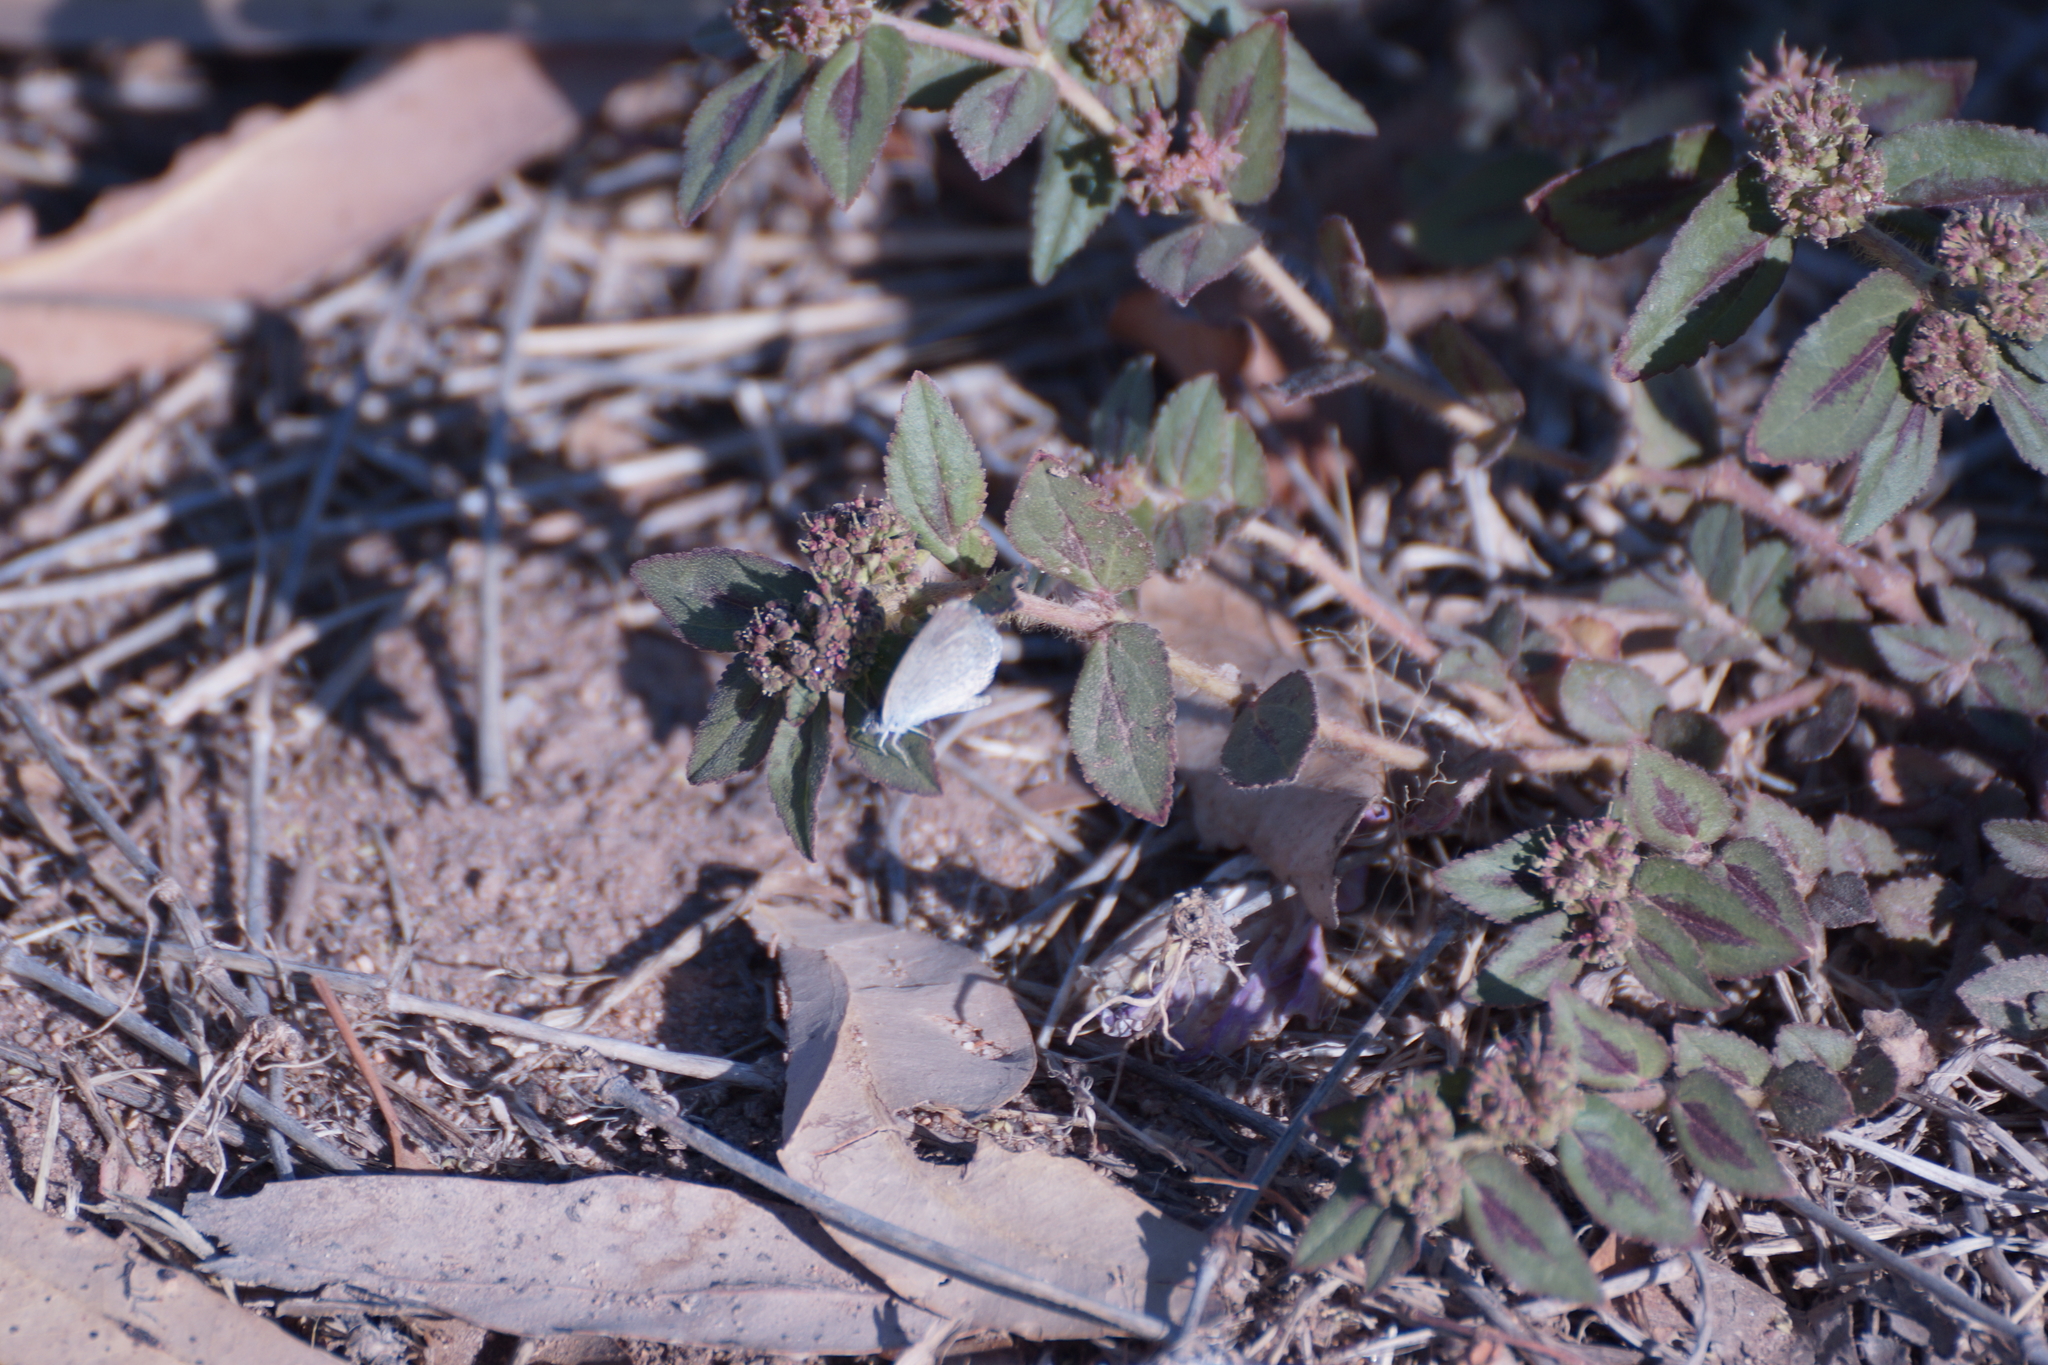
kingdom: Animalia
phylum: Arthropoda
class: Insecta
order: Lepidoptera
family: Lycaenidae
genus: Zizina
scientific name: Zizina labradus
